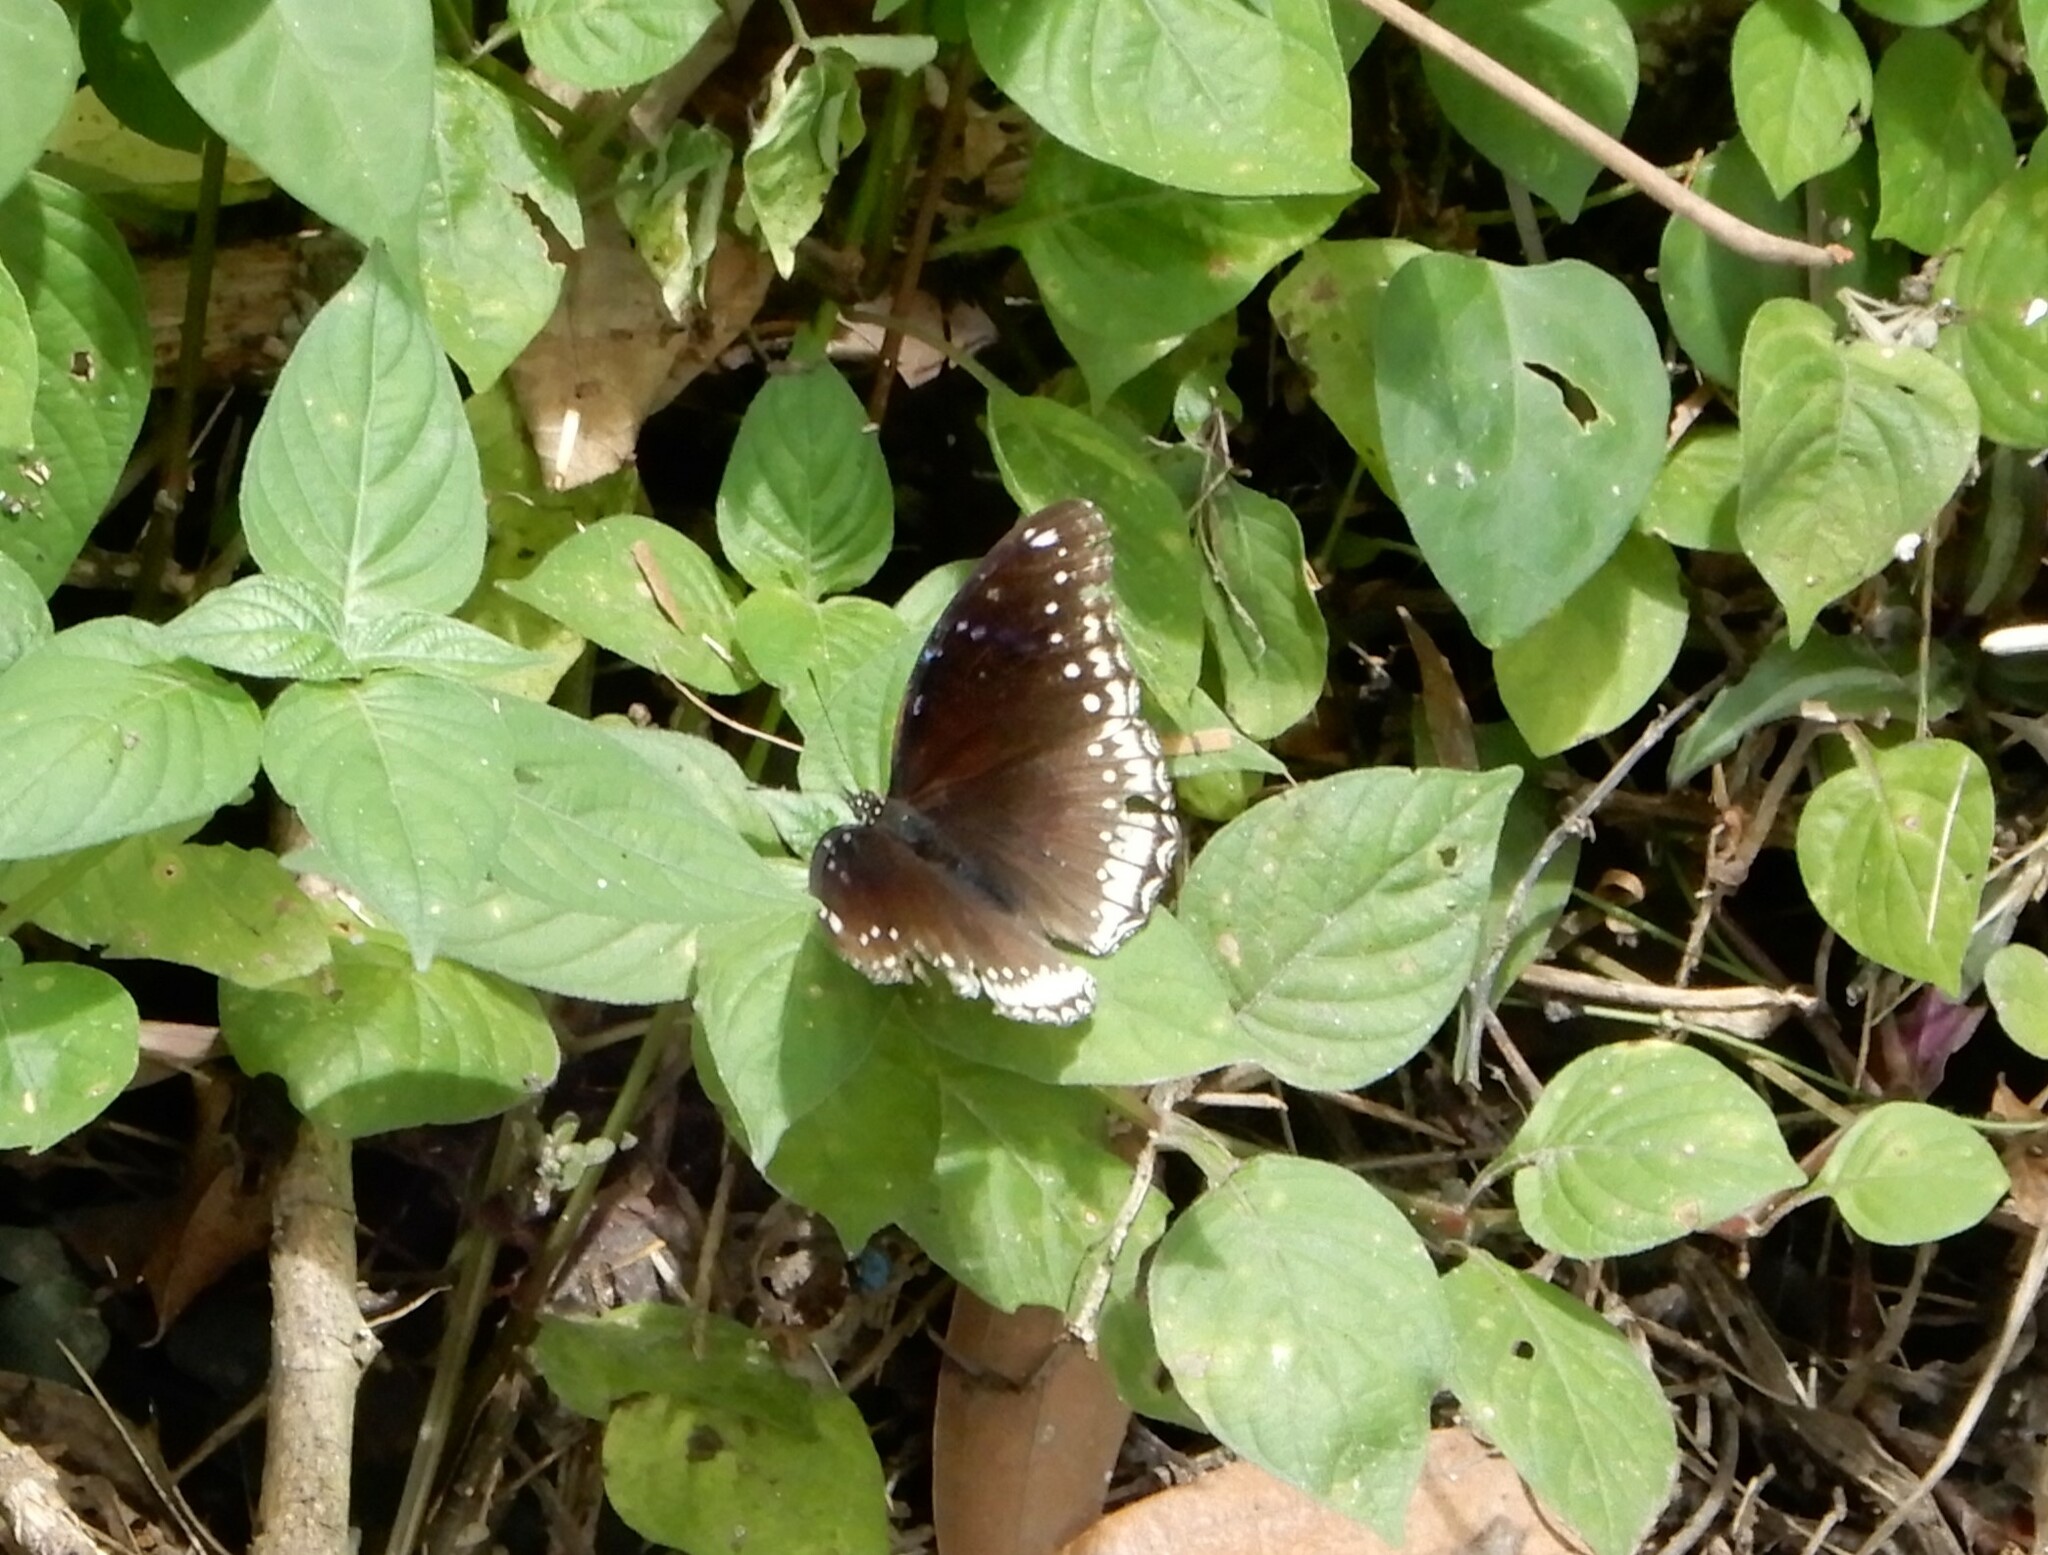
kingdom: Animalia
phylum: Arthropoda
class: Insecta
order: Lepidoptera
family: Nymphalidae
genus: Hypolimnas
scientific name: Hypolimnas bolina
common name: Great eggfly
